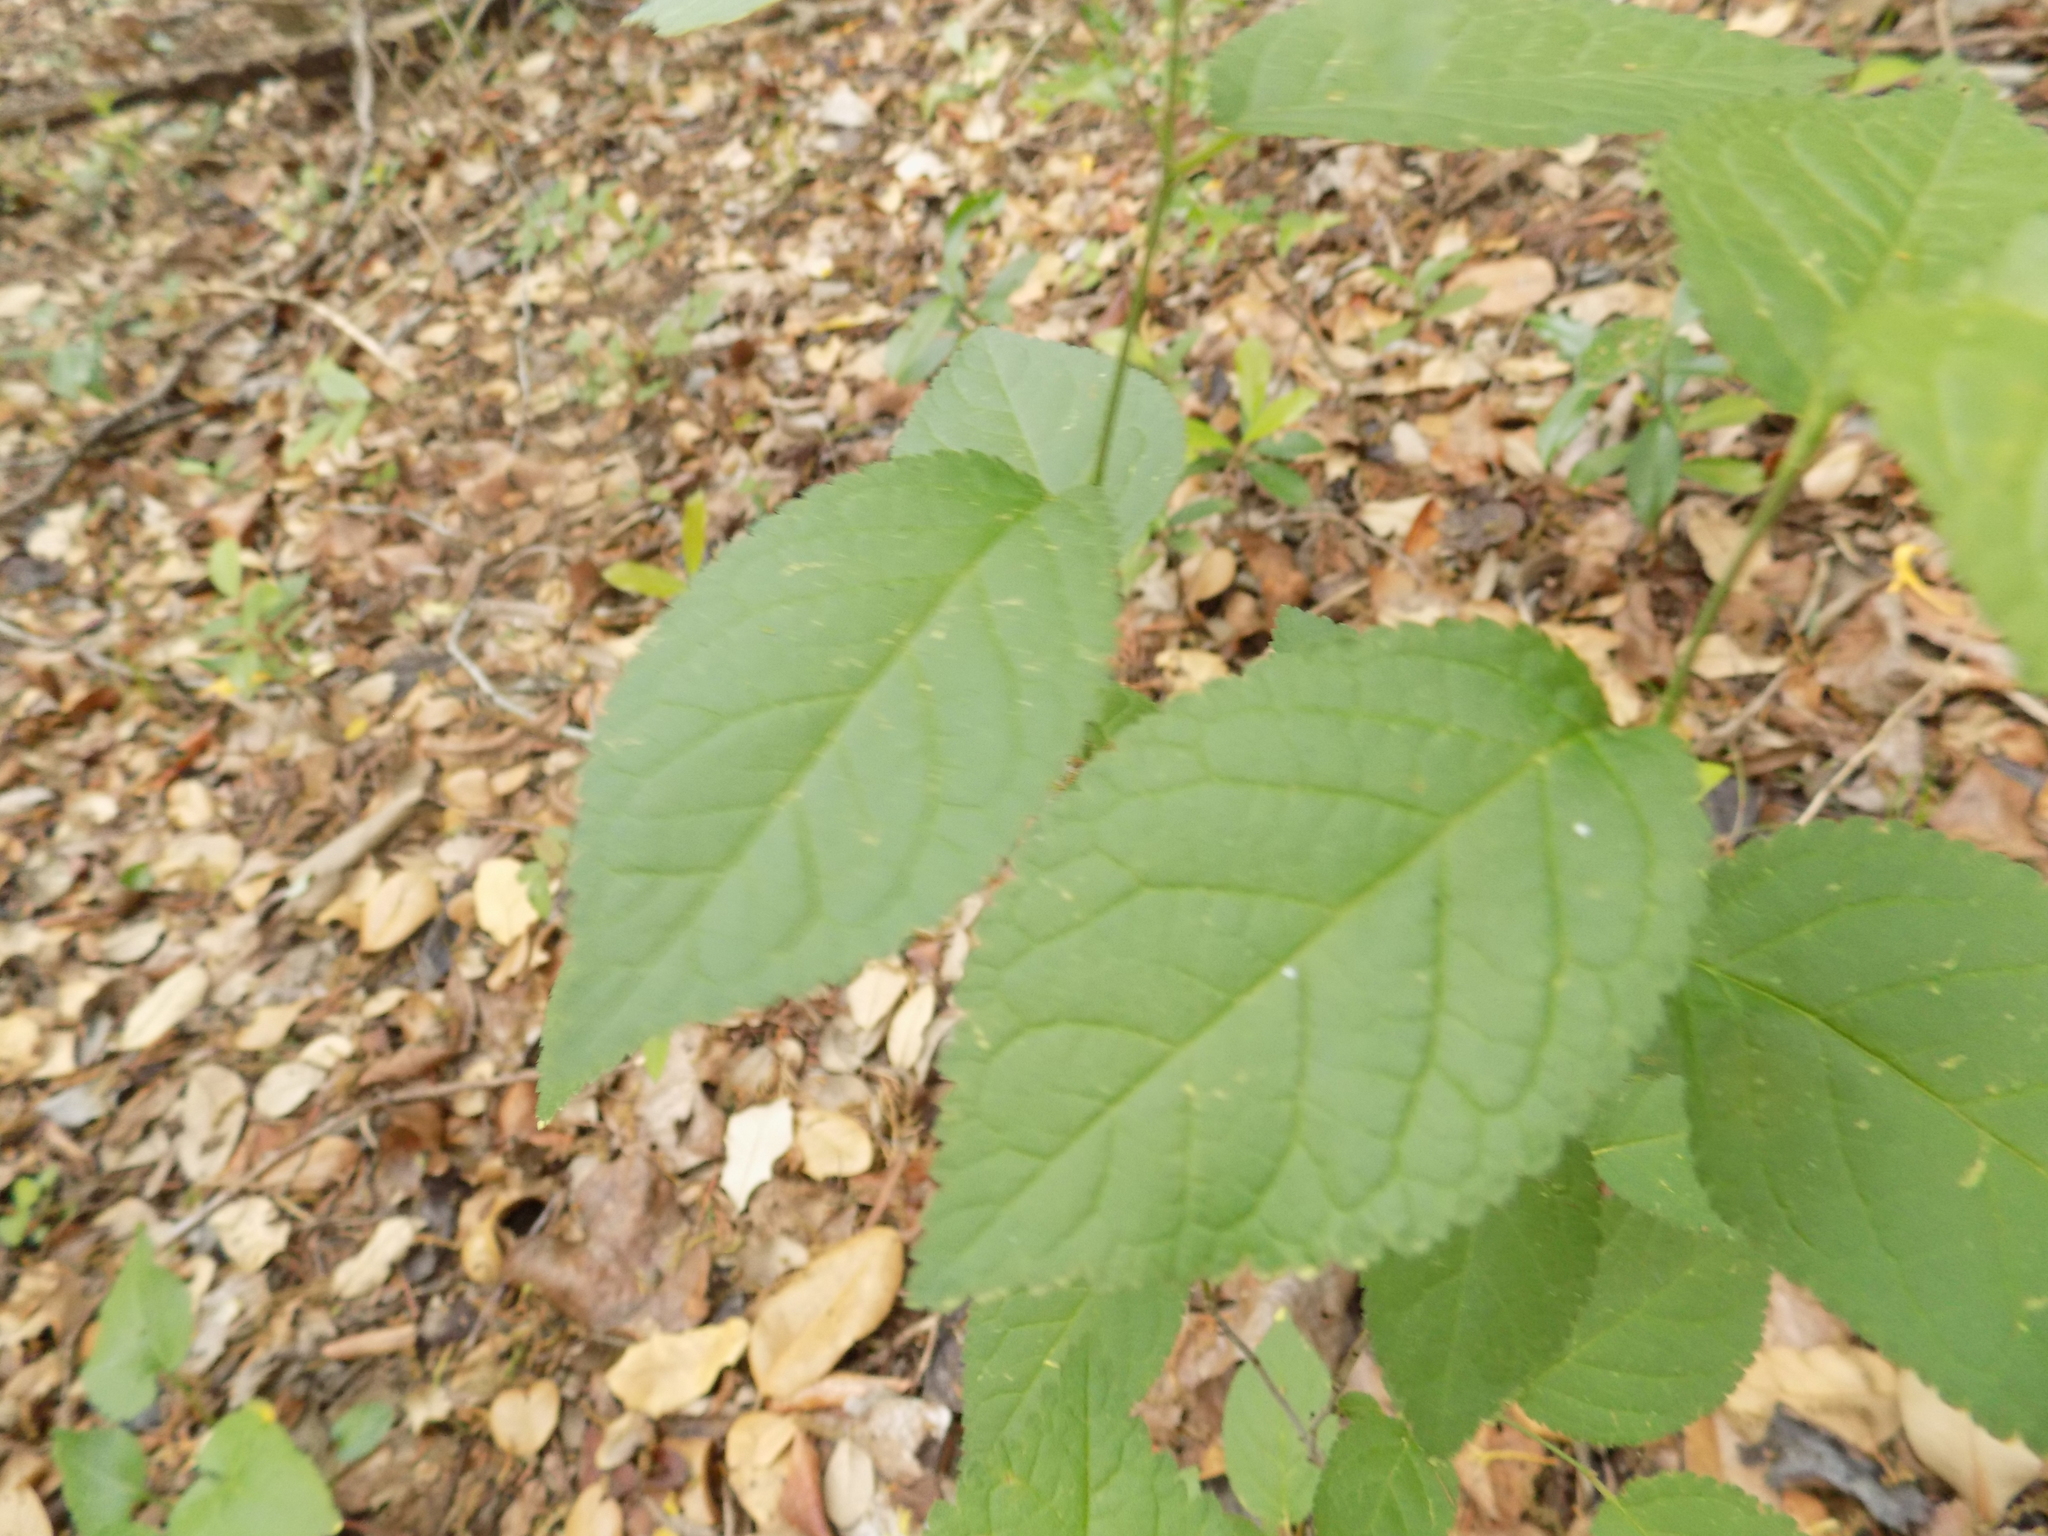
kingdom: Plantae
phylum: Tracheophyta
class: Magnoliopsida
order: Lamiales
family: Lamiaceae
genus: Callicarpa
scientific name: Callicarpa americana
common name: American beautyberry
